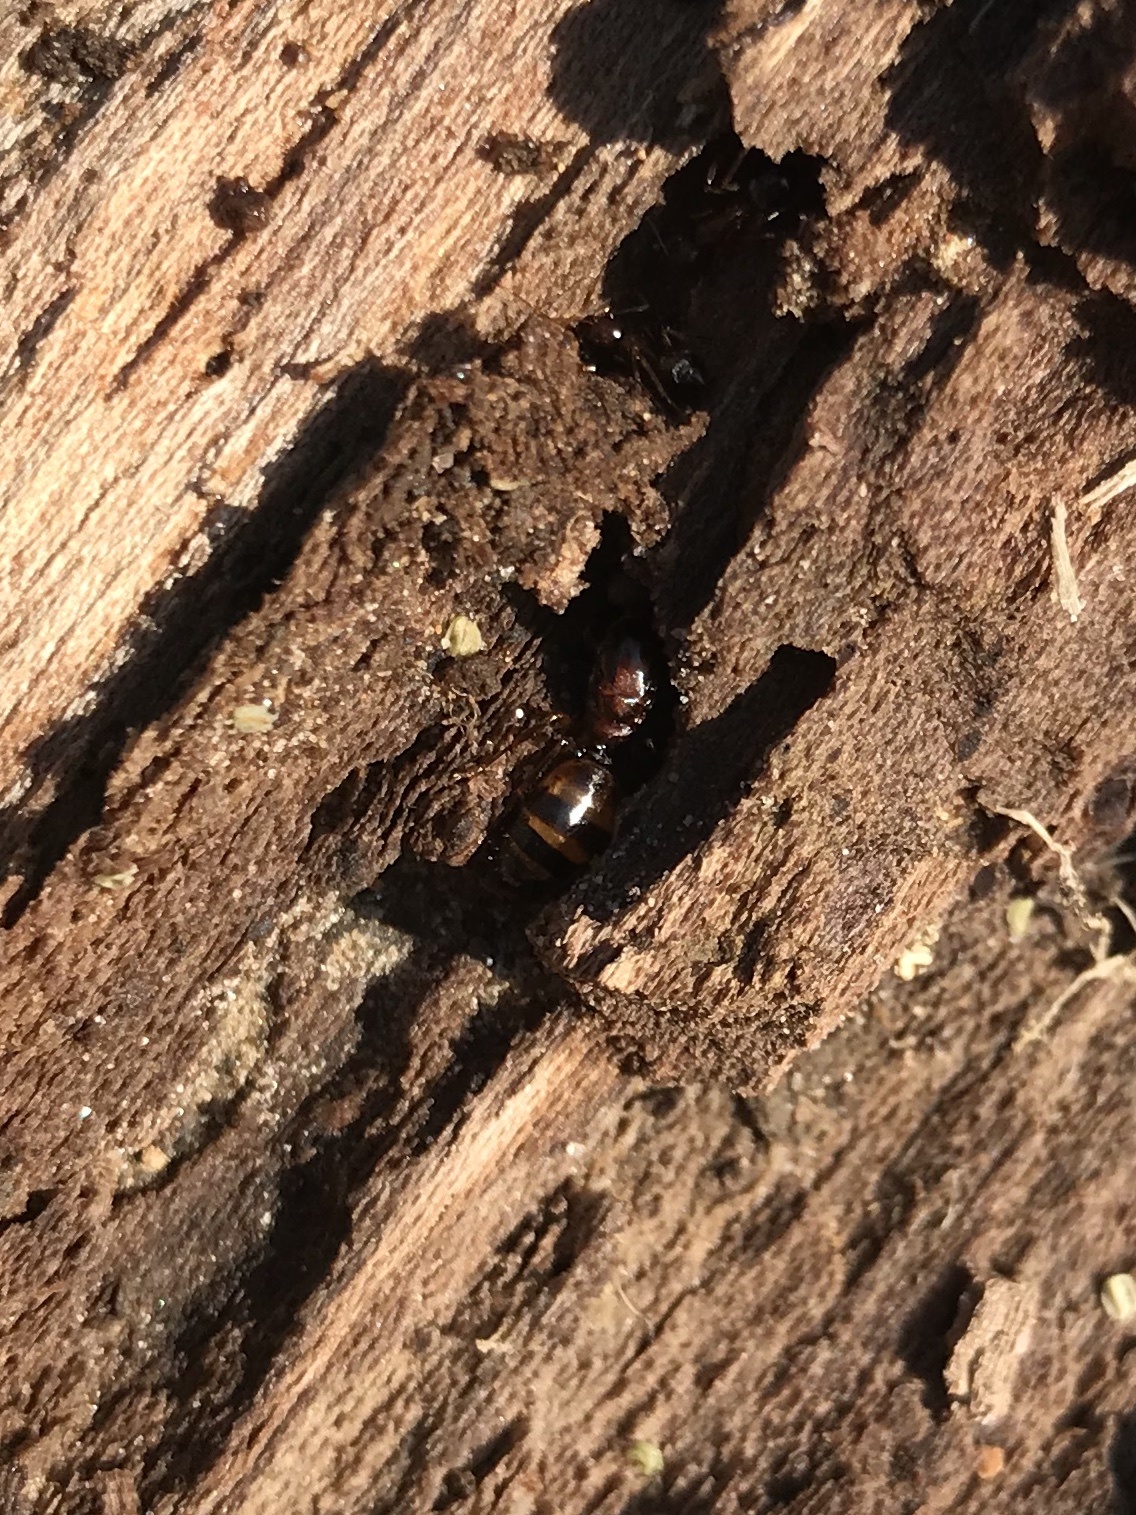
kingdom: Animalia
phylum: Arthropoda
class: Insecta
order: Hymenoptera
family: Formicidae
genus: Camponotus
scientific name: Camponotus subbarbatus
